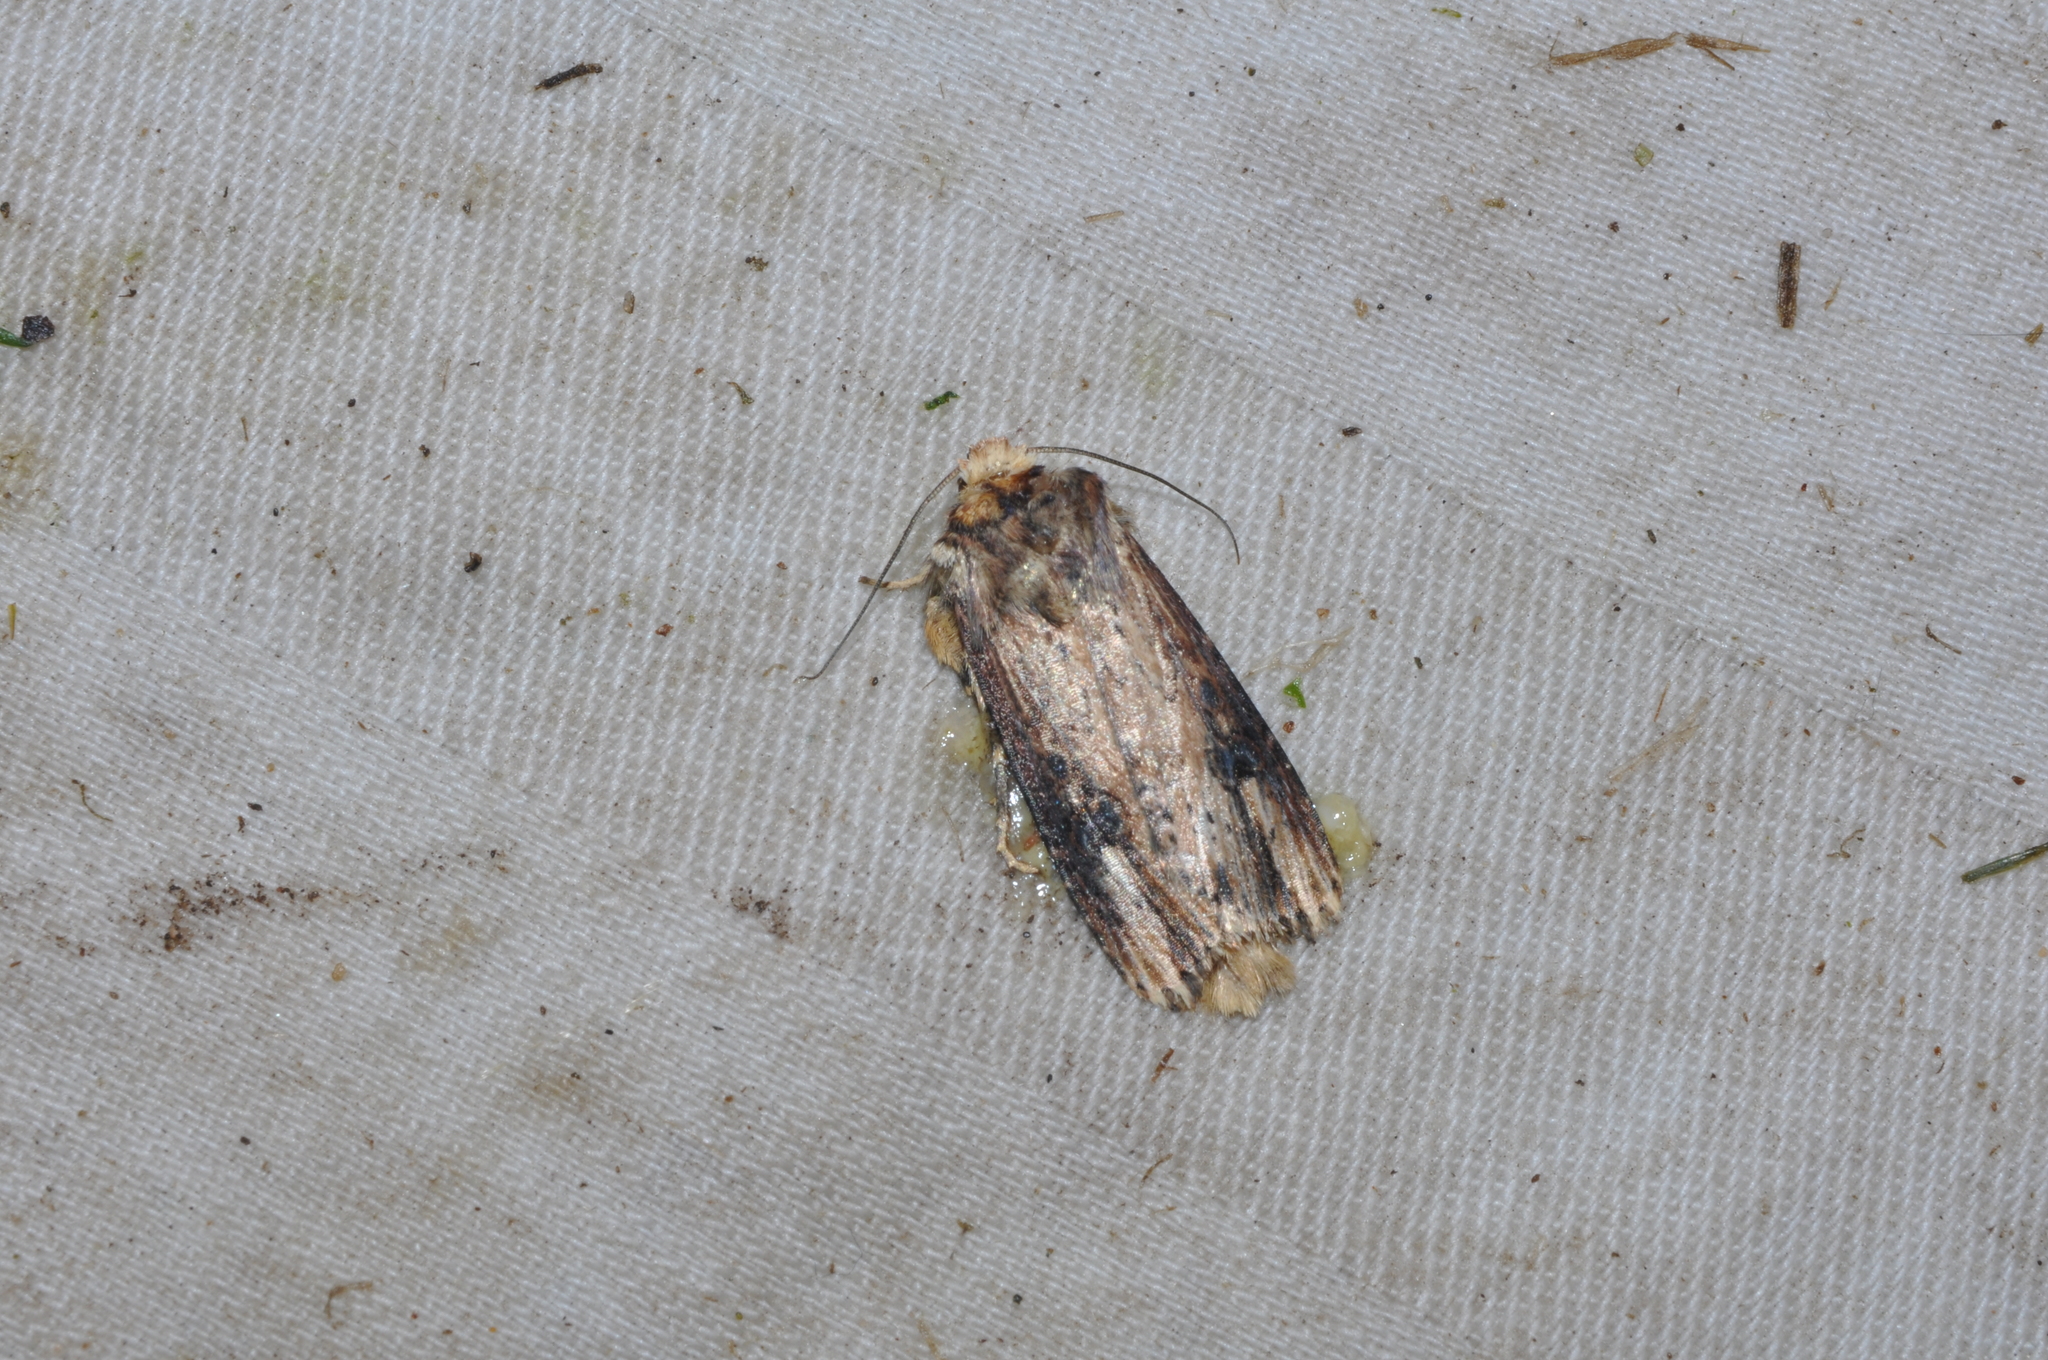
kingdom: Animalia
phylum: Arthropoda
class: Insecta
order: Lepidoptera
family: Noctuidae
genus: Axylia
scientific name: Axylia putris
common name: Flame
